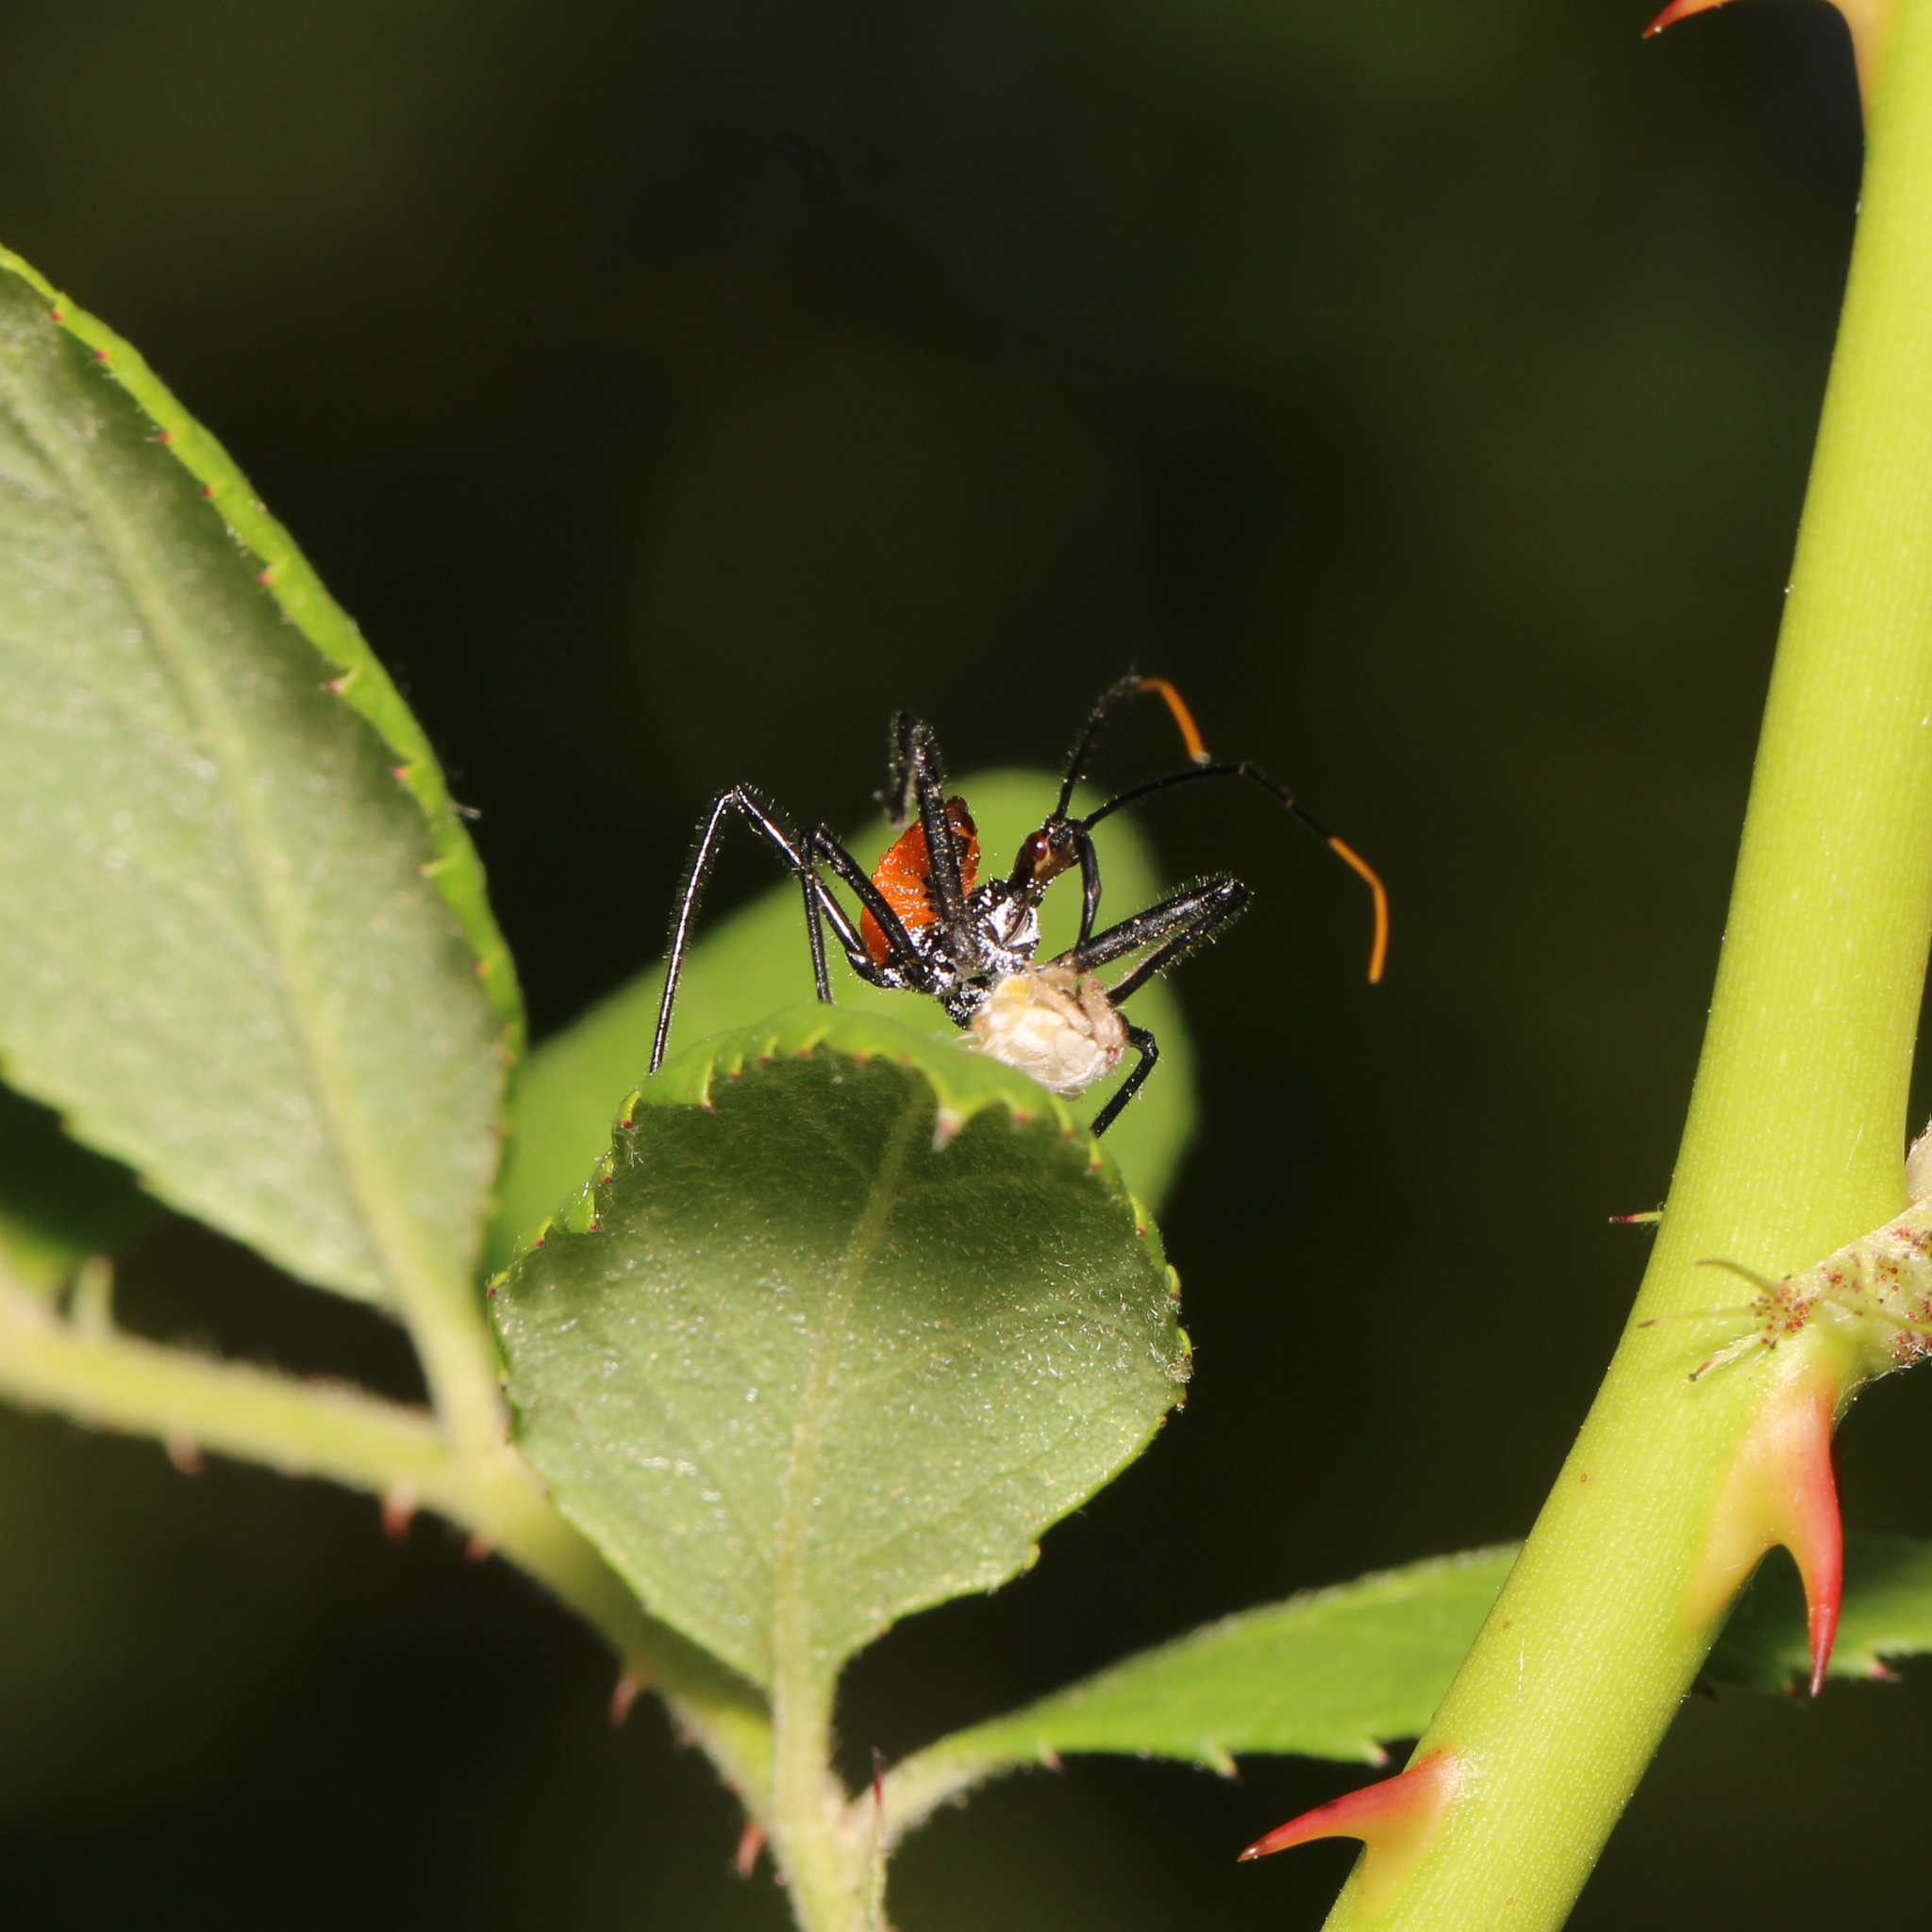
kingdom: Animalia
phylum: Arthropoda
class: Insecta
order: Hemiptera
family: Reduviidae
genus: Arilus
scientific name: Arilus cristatus
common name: North american wheel bug
